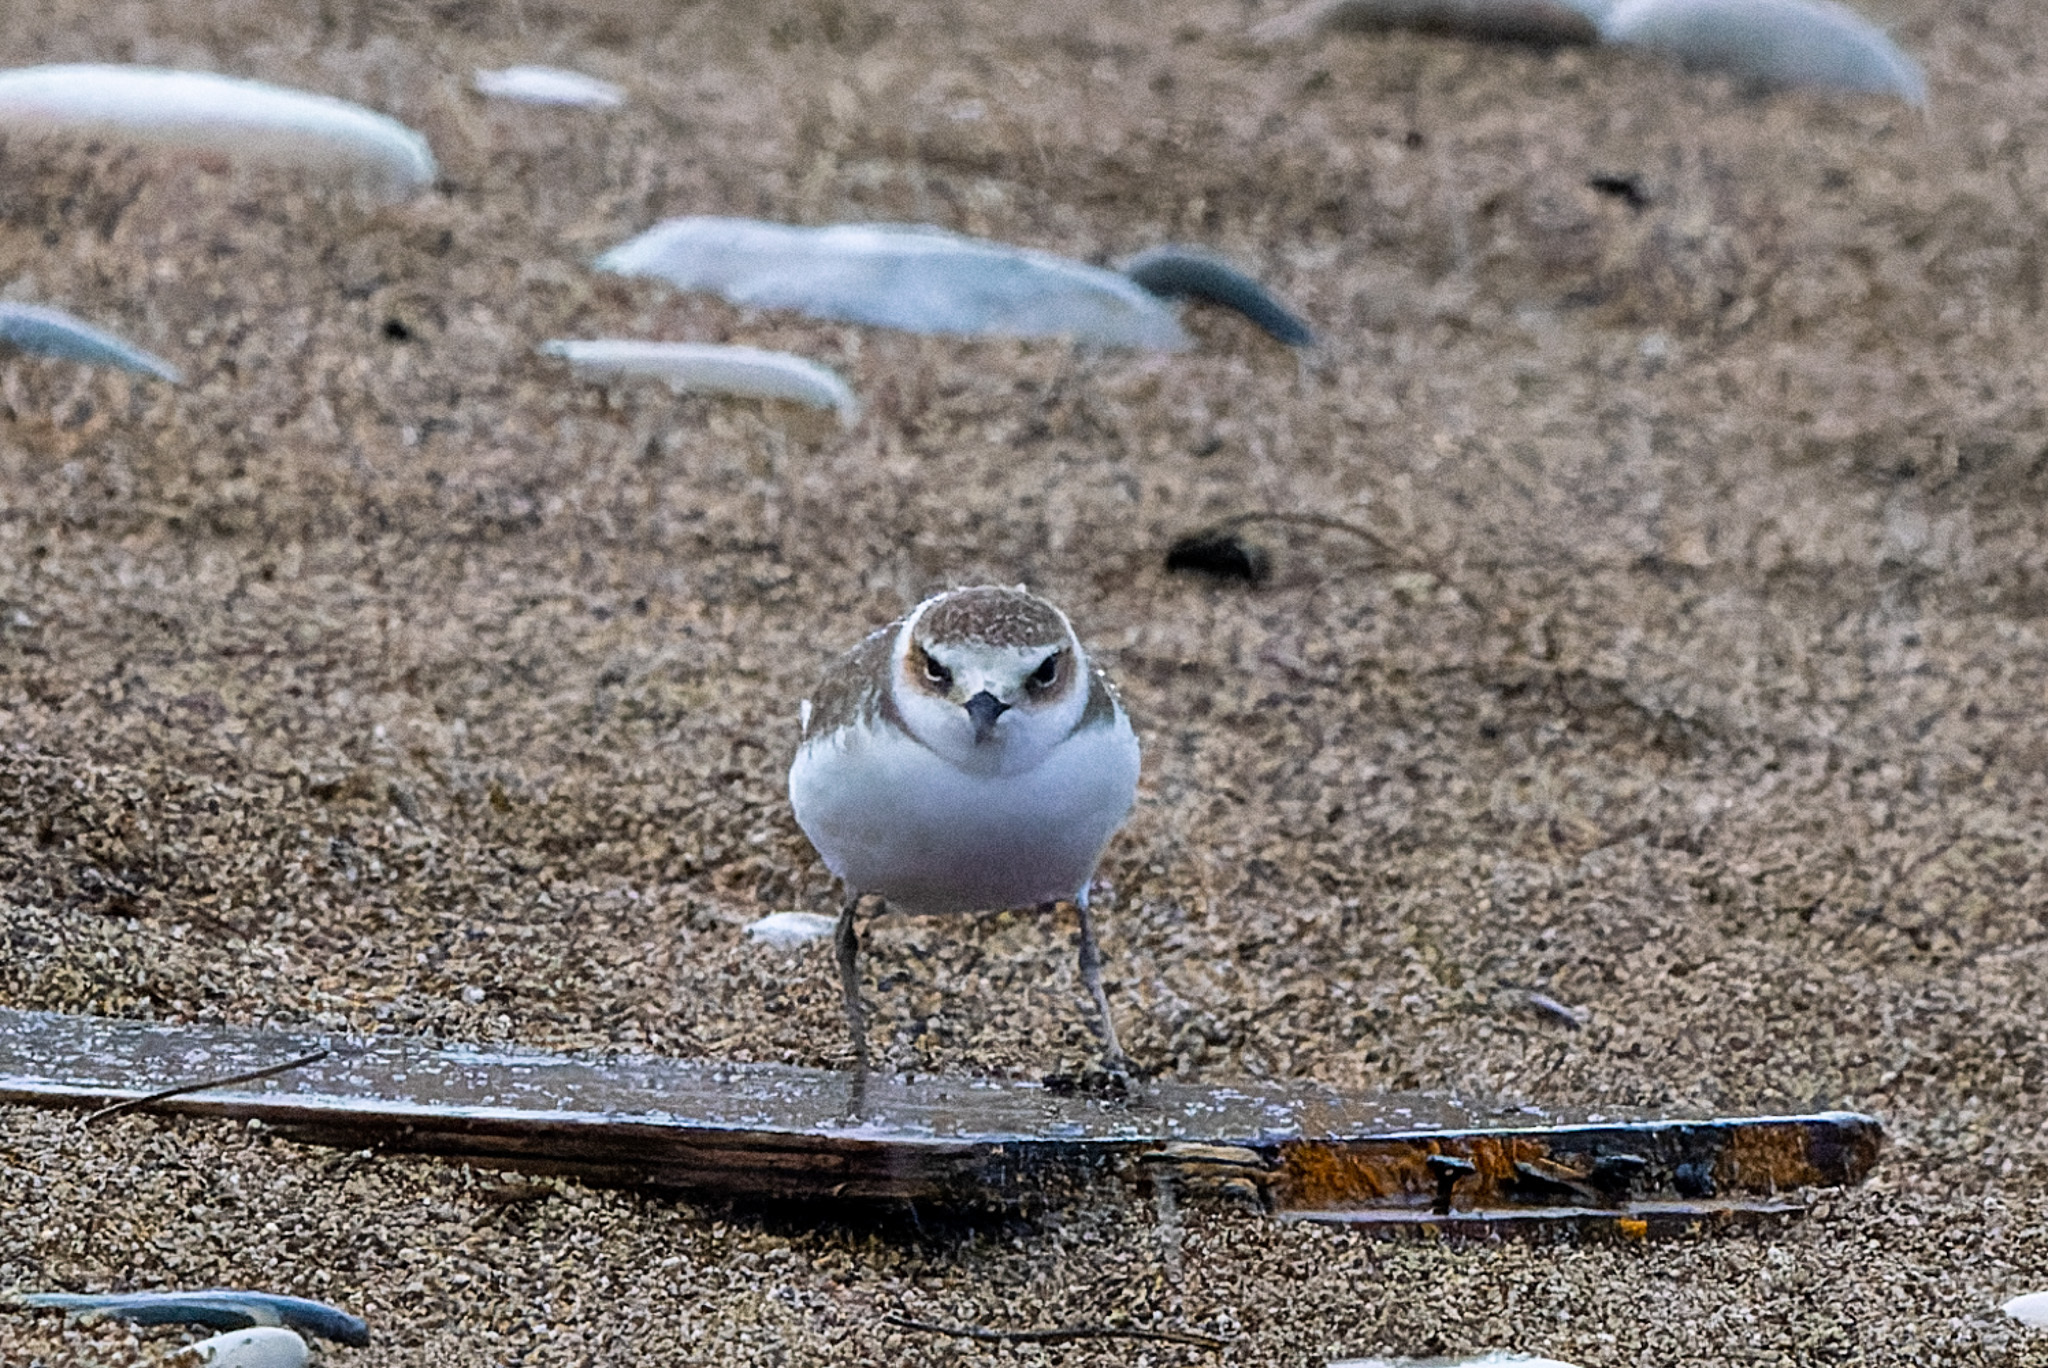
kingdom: Animalia
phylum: Chordata
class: Aves
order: Charadriiformes
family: Charadriidae
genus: Charadrius
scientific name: Charadrius alexandrinus
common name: Kentish plover
